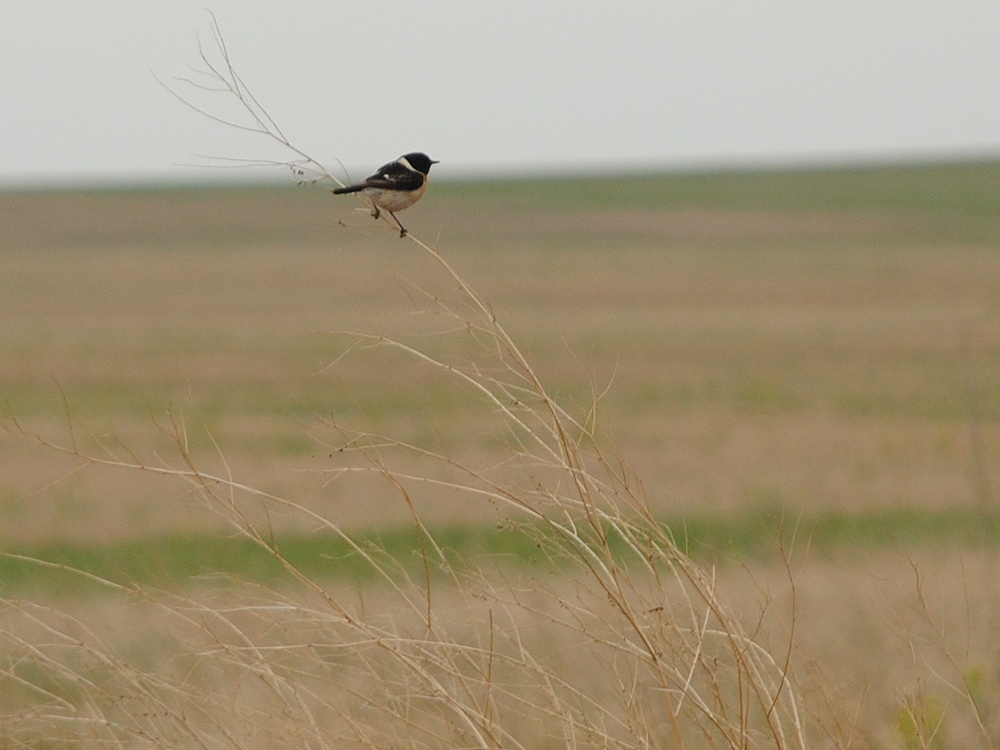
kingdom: Animalia
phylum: Chordata
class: Aves
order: Passeriformes
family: Muscicapidae
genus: Saxicola
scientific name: Saxicola maurus
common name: Siberian stonechat
